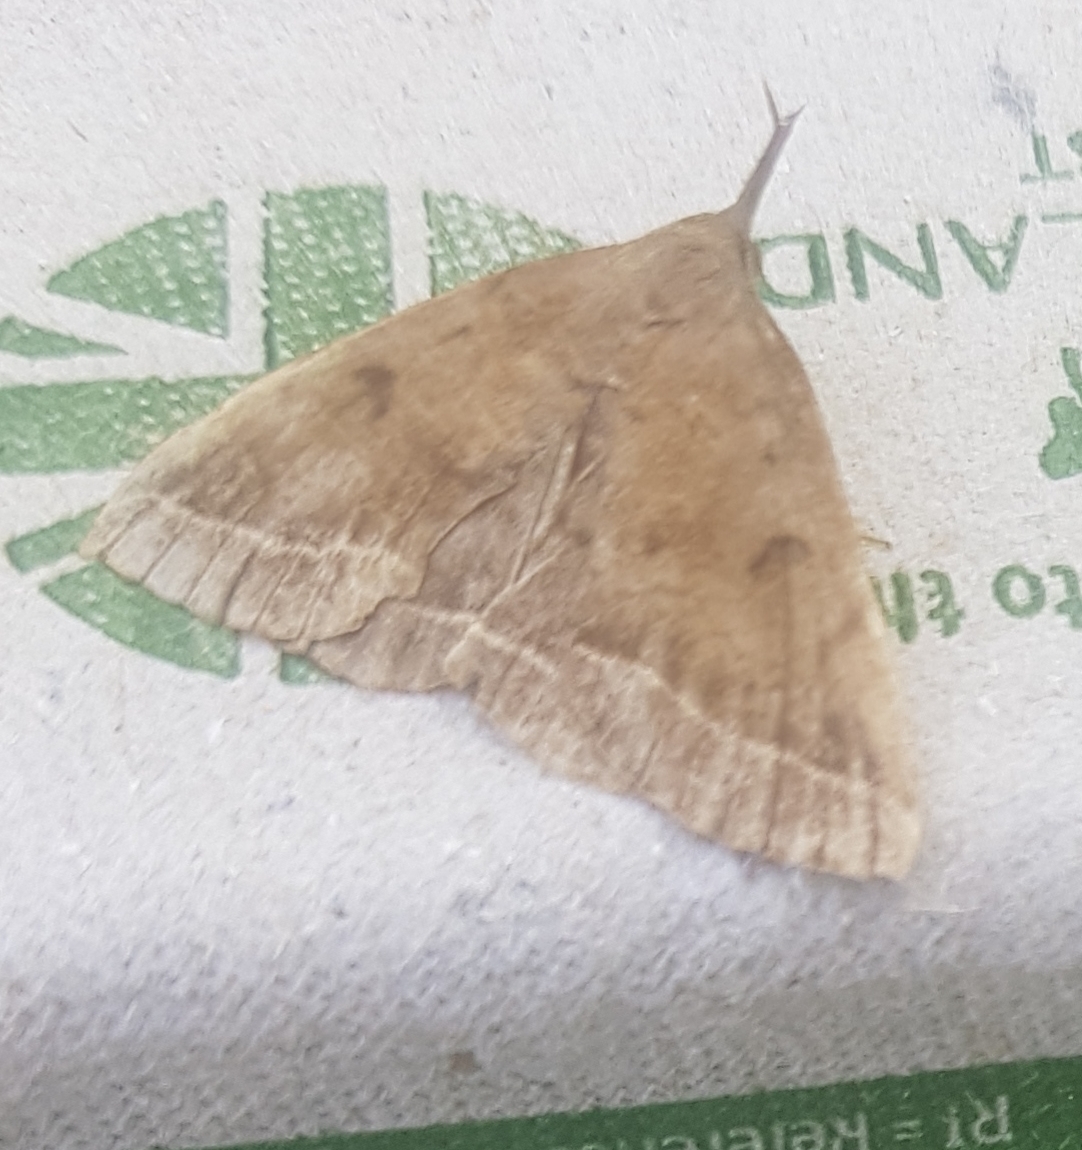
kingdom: Animalia
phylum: Arthropoda
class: Insecta
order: Lepidoptera
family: Erebidae
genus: Pechipogo
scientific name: Pechipogo plumigeralis
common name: Plumed fan-foot
